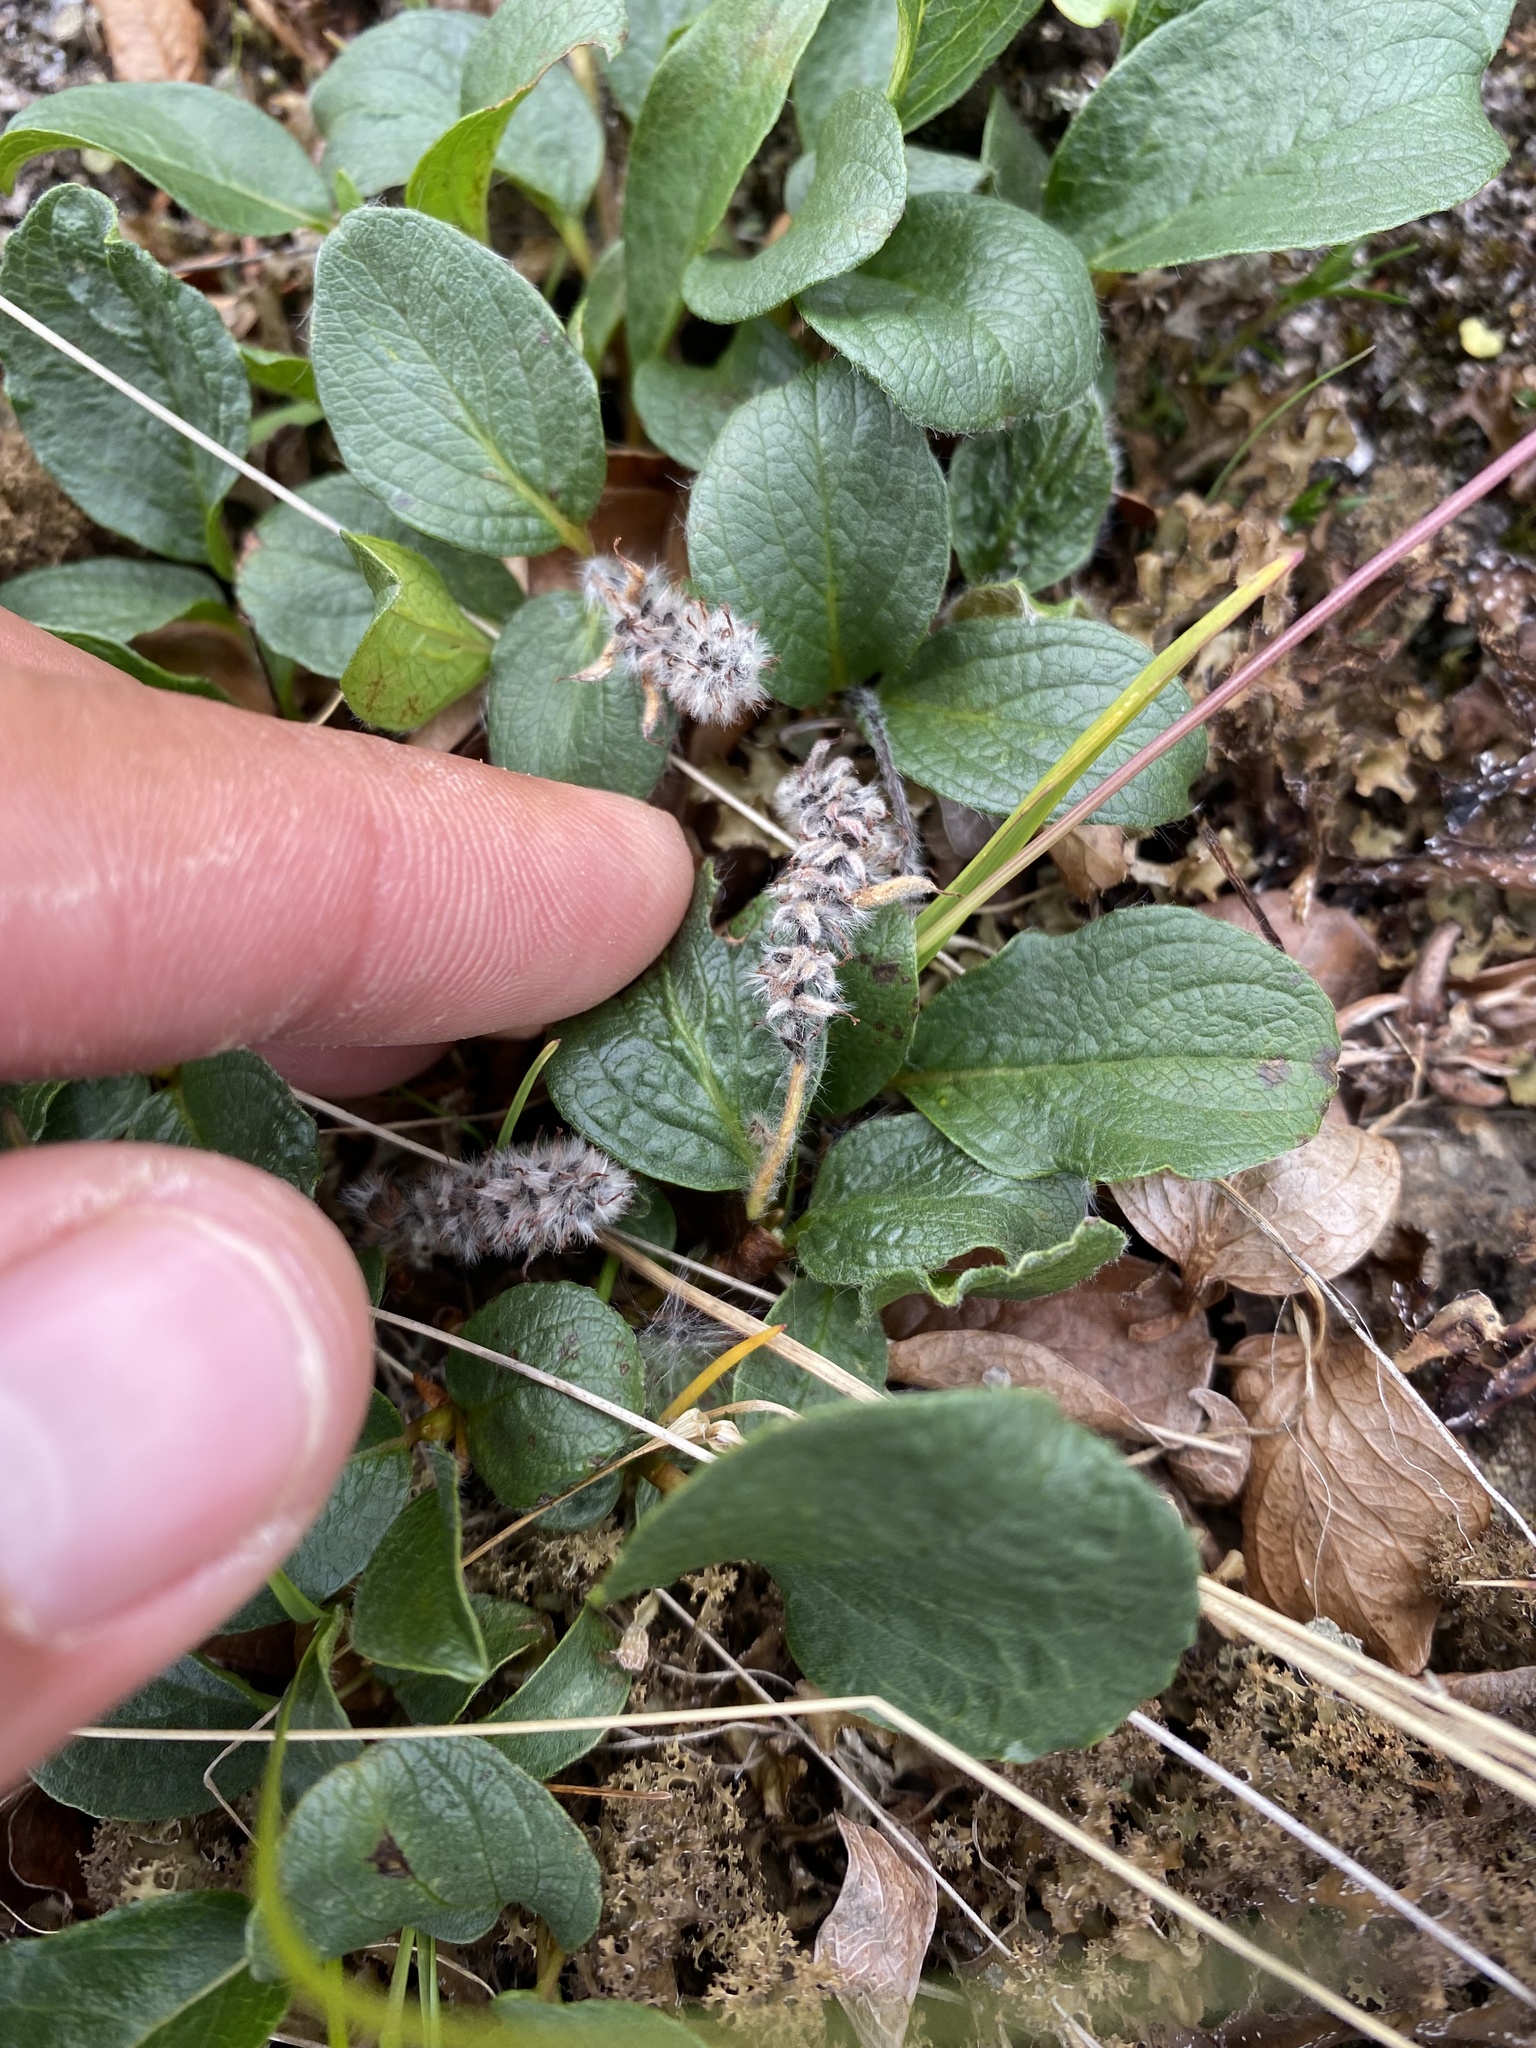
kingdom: Plantae
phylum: Tracheophyta
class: Magnoliopsida
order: Malpighiales
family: Salicaceae
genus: Salix
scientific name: Salix reticulata
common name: Net-leaved willow
